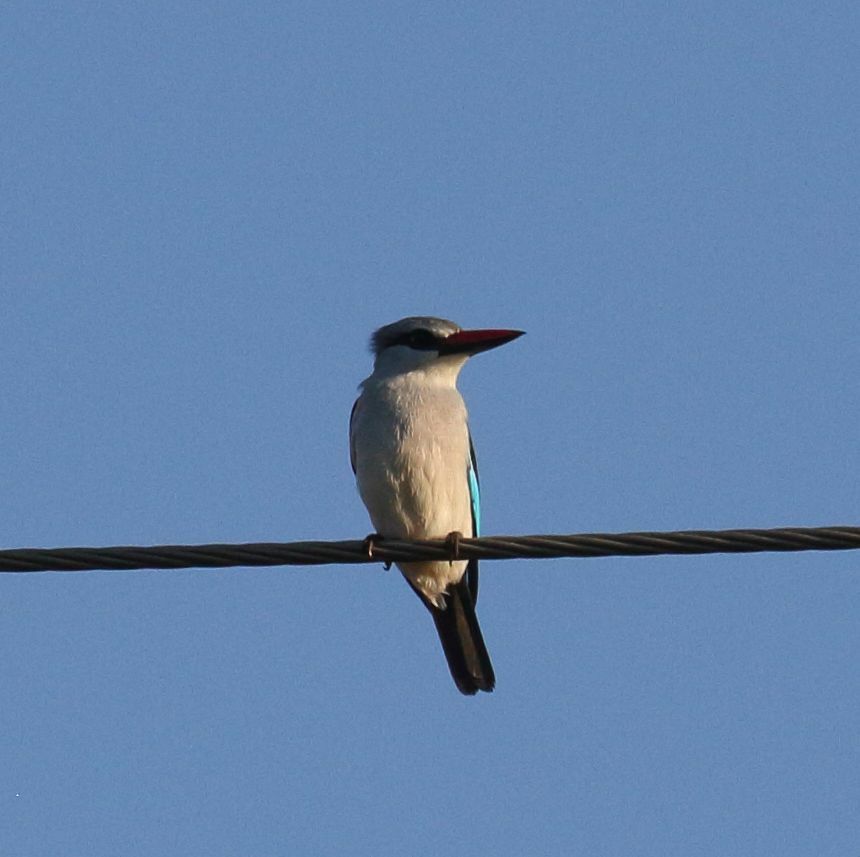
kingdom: Animalia
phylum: Chordata
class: Aves
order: Coraciiformes
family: Alcedinidae
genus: Halcyon
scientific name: Halcyon senegalensis
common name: Woodland kingfisher
